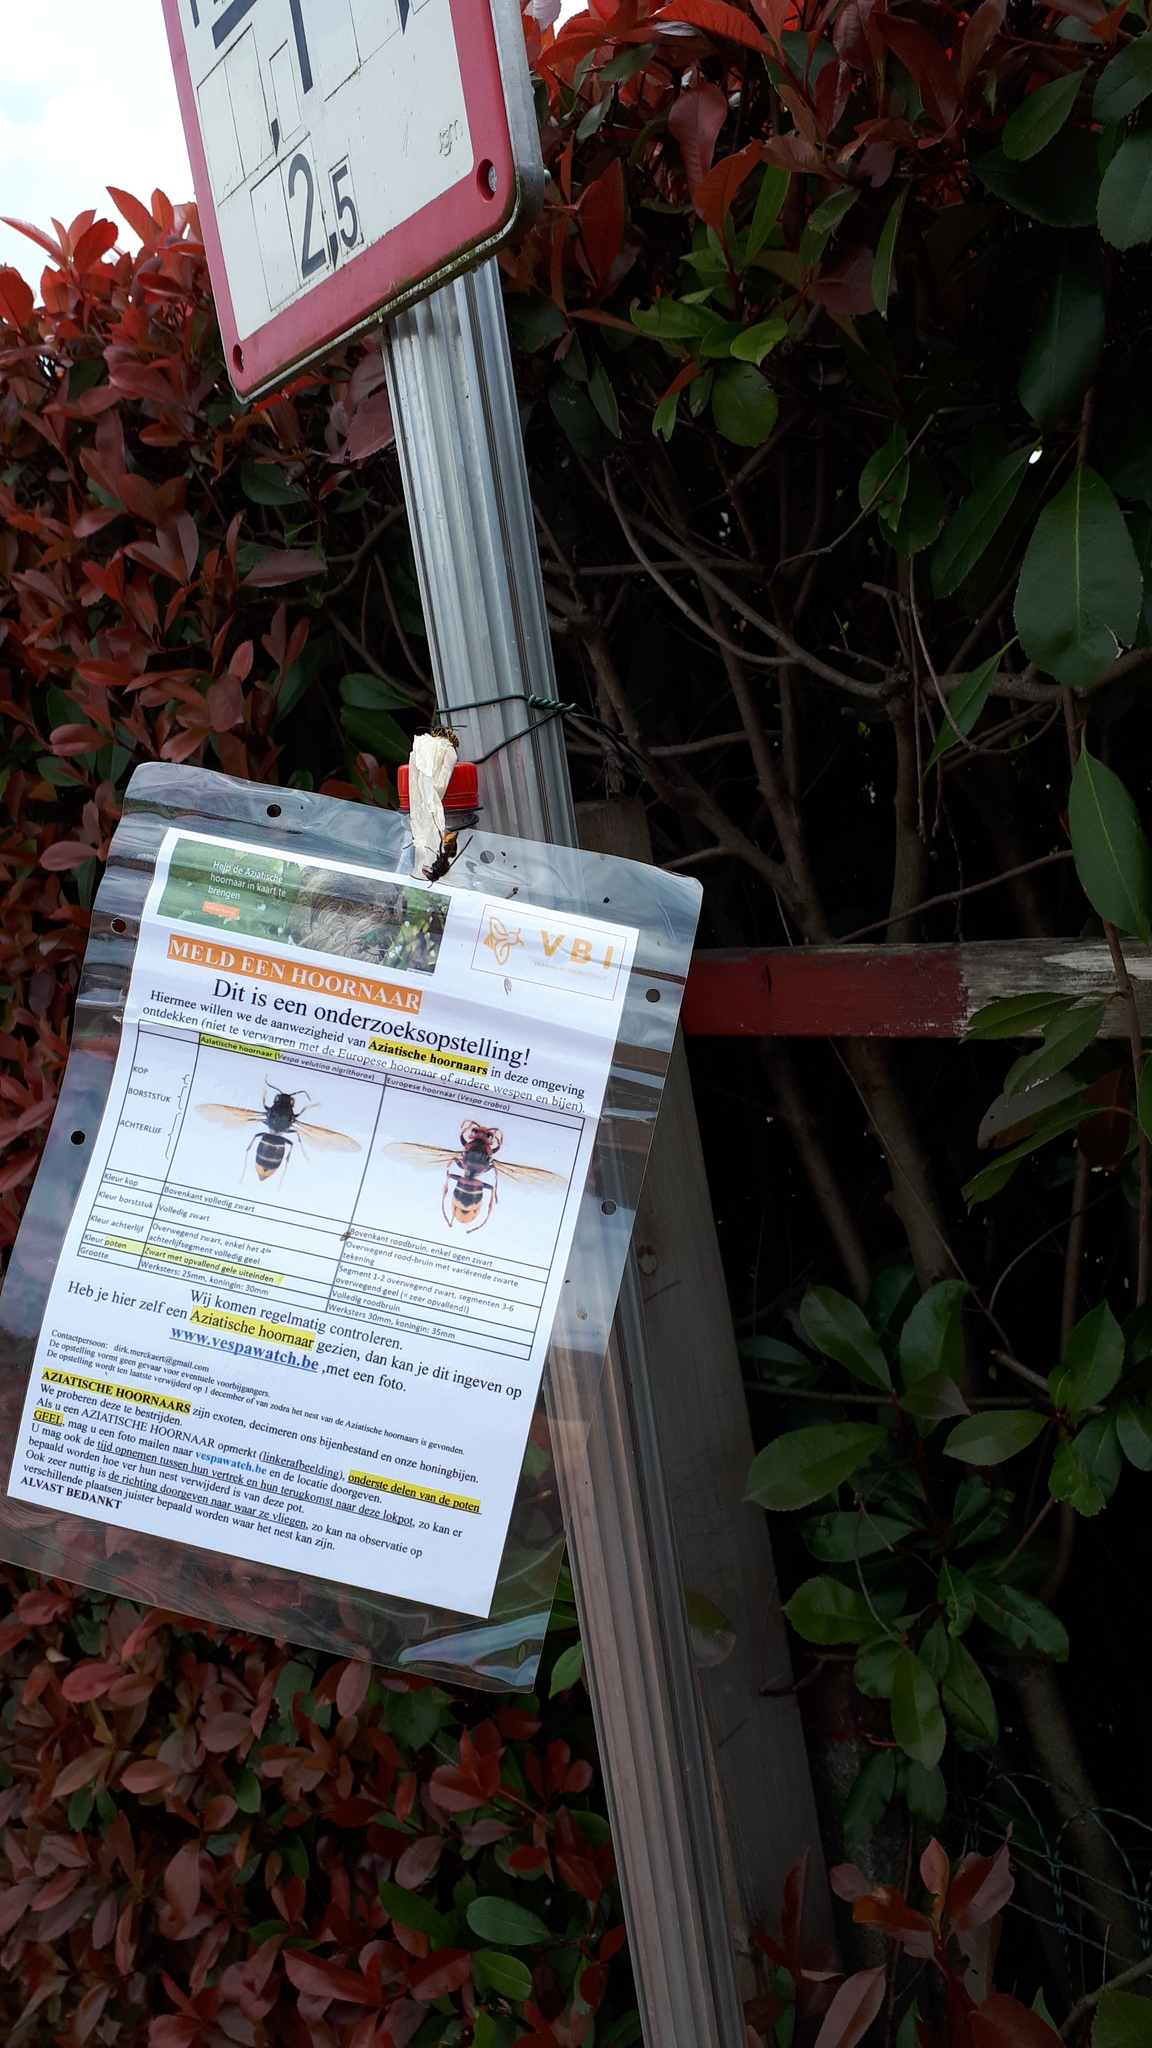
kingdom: Animalia
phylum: Arthropoda
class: Insecta
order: Hymenoptera
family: Vespidae
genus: Vespa
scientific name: Vespa velutina
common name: Asian hornet
